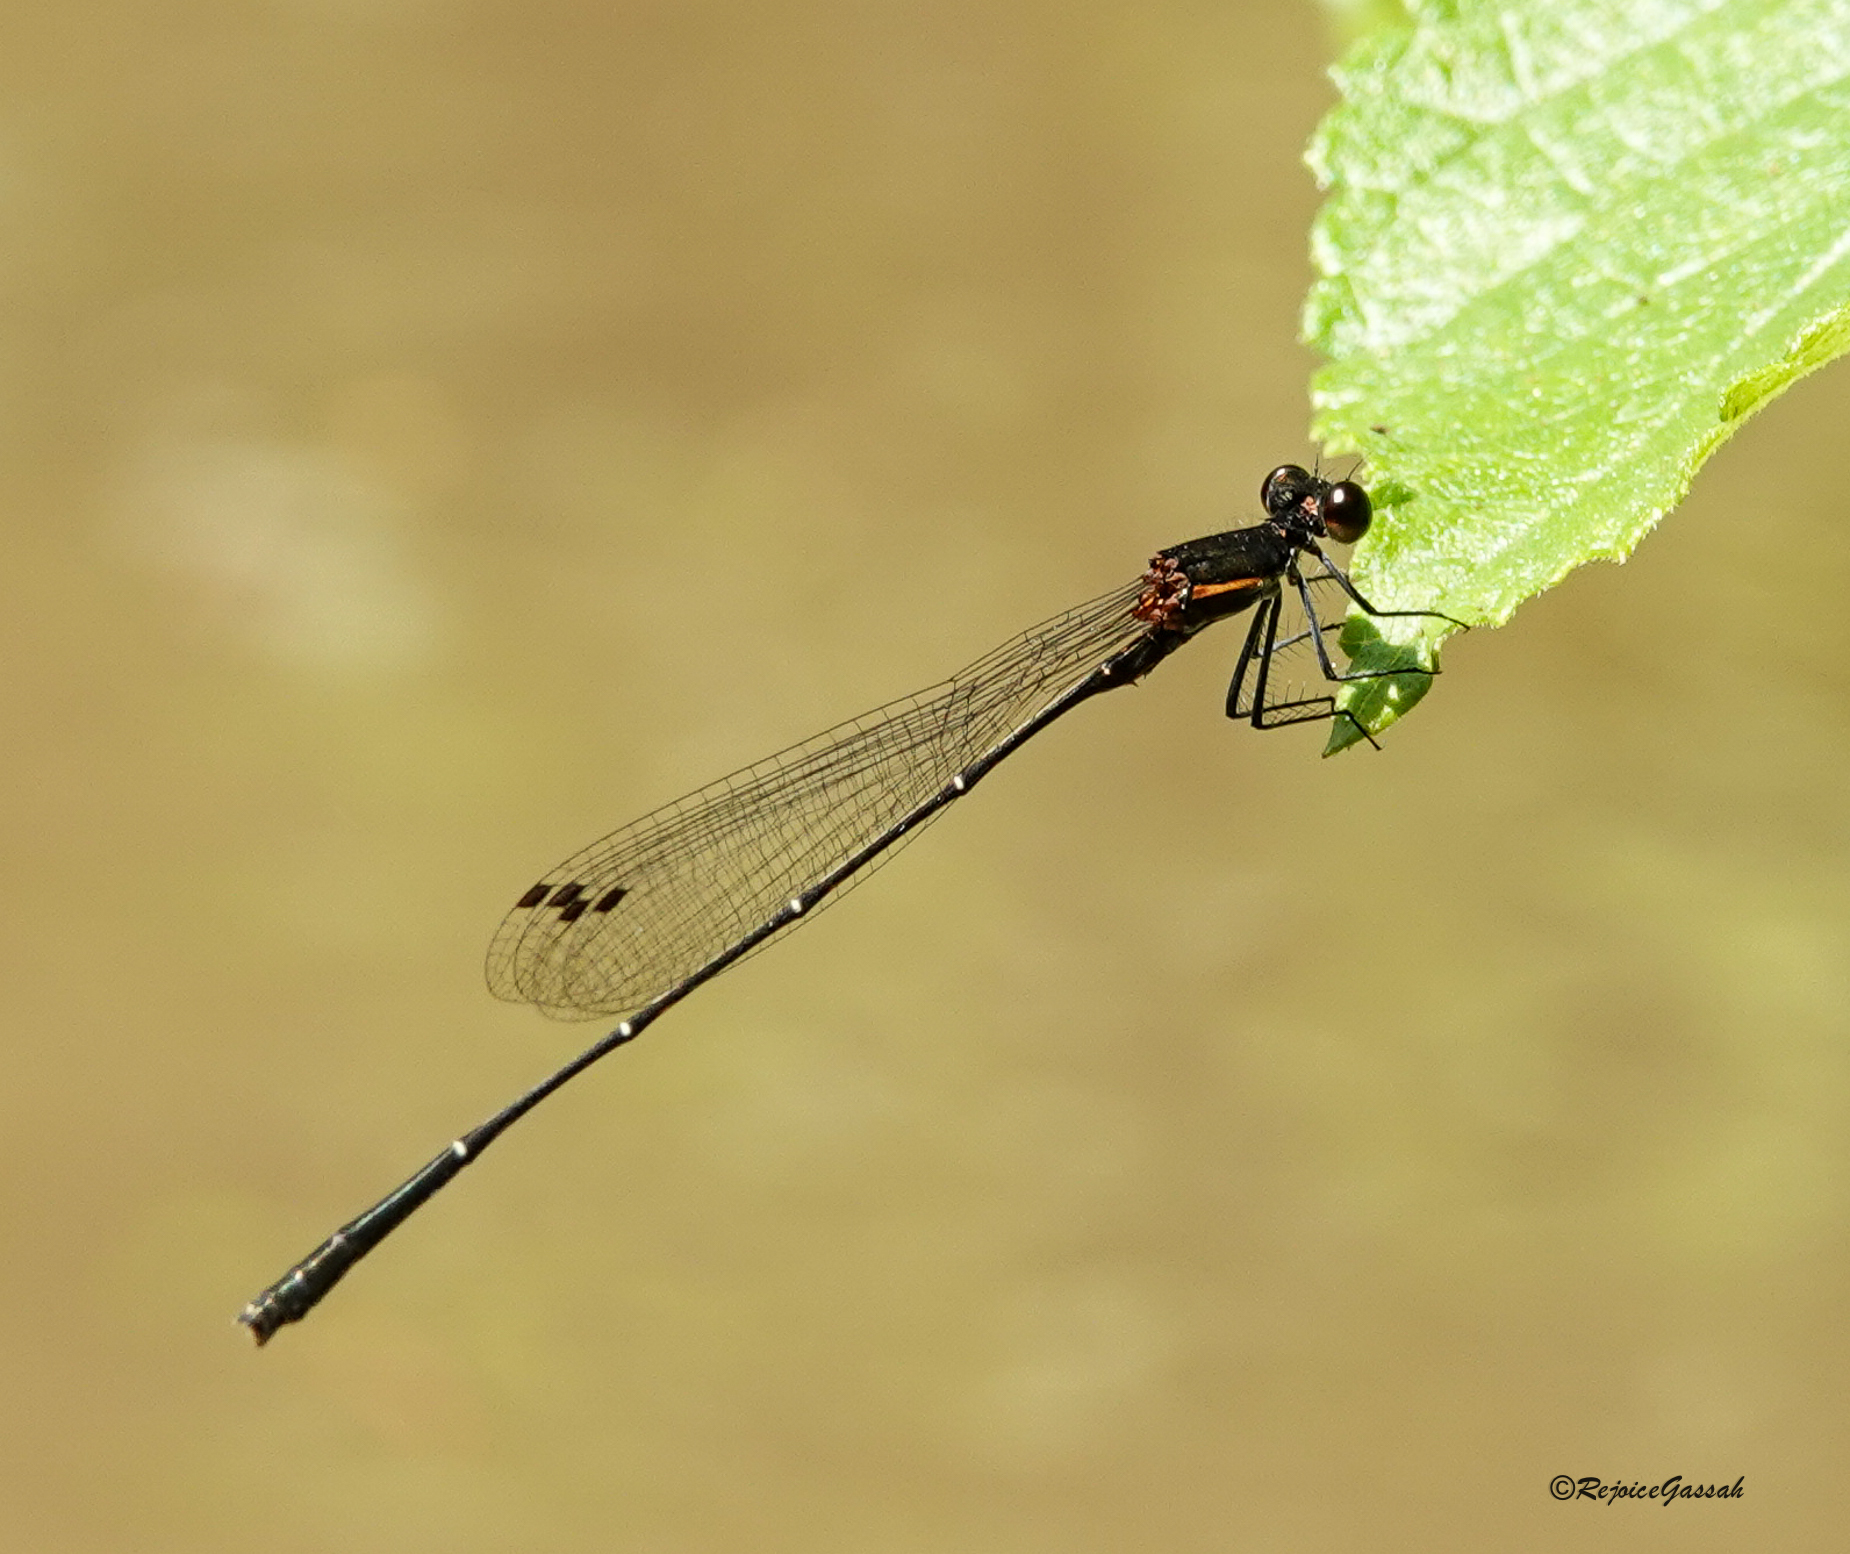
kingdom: Animalia
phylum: Arthropoda
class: Insecta
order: Odonata
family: Platycnemididae
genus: Prodasineura
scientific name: Prodasineura verticalis
